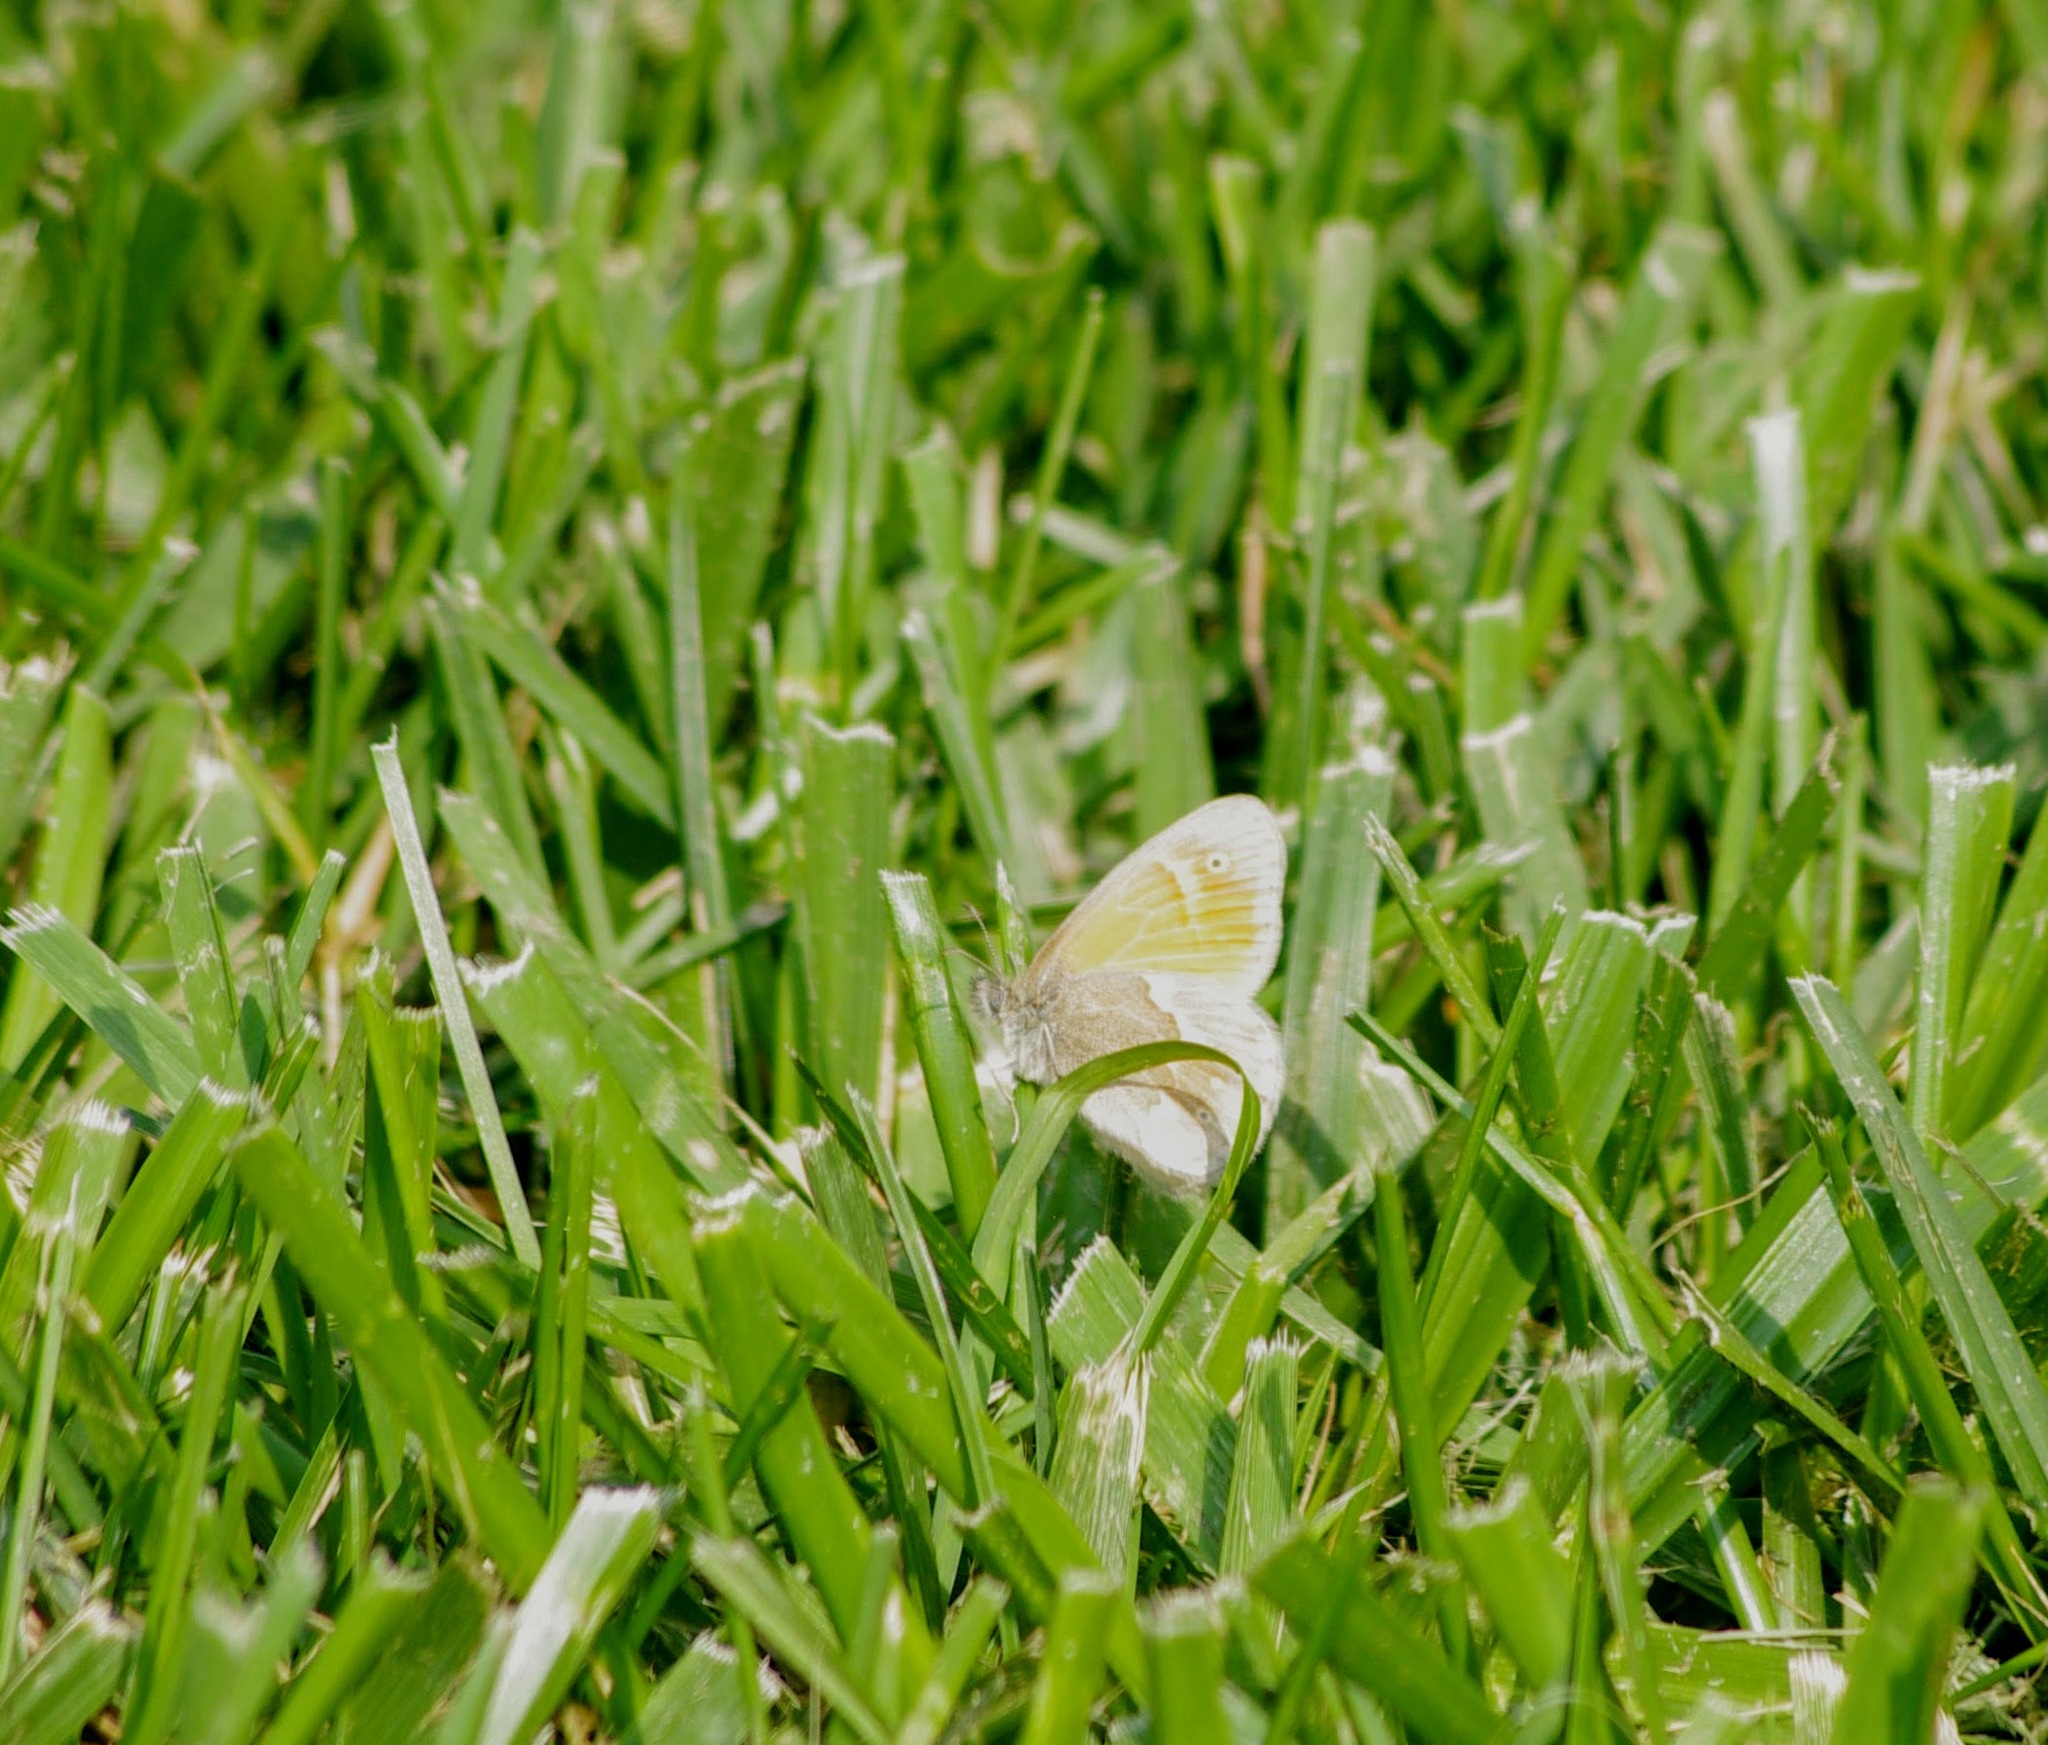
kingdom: Animalia
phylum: Arthropoda
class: Insecta
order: Lepidoptera
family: Nymphalidae
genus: Coenonympha
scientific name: Coenonympha california
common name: Common ringlet
